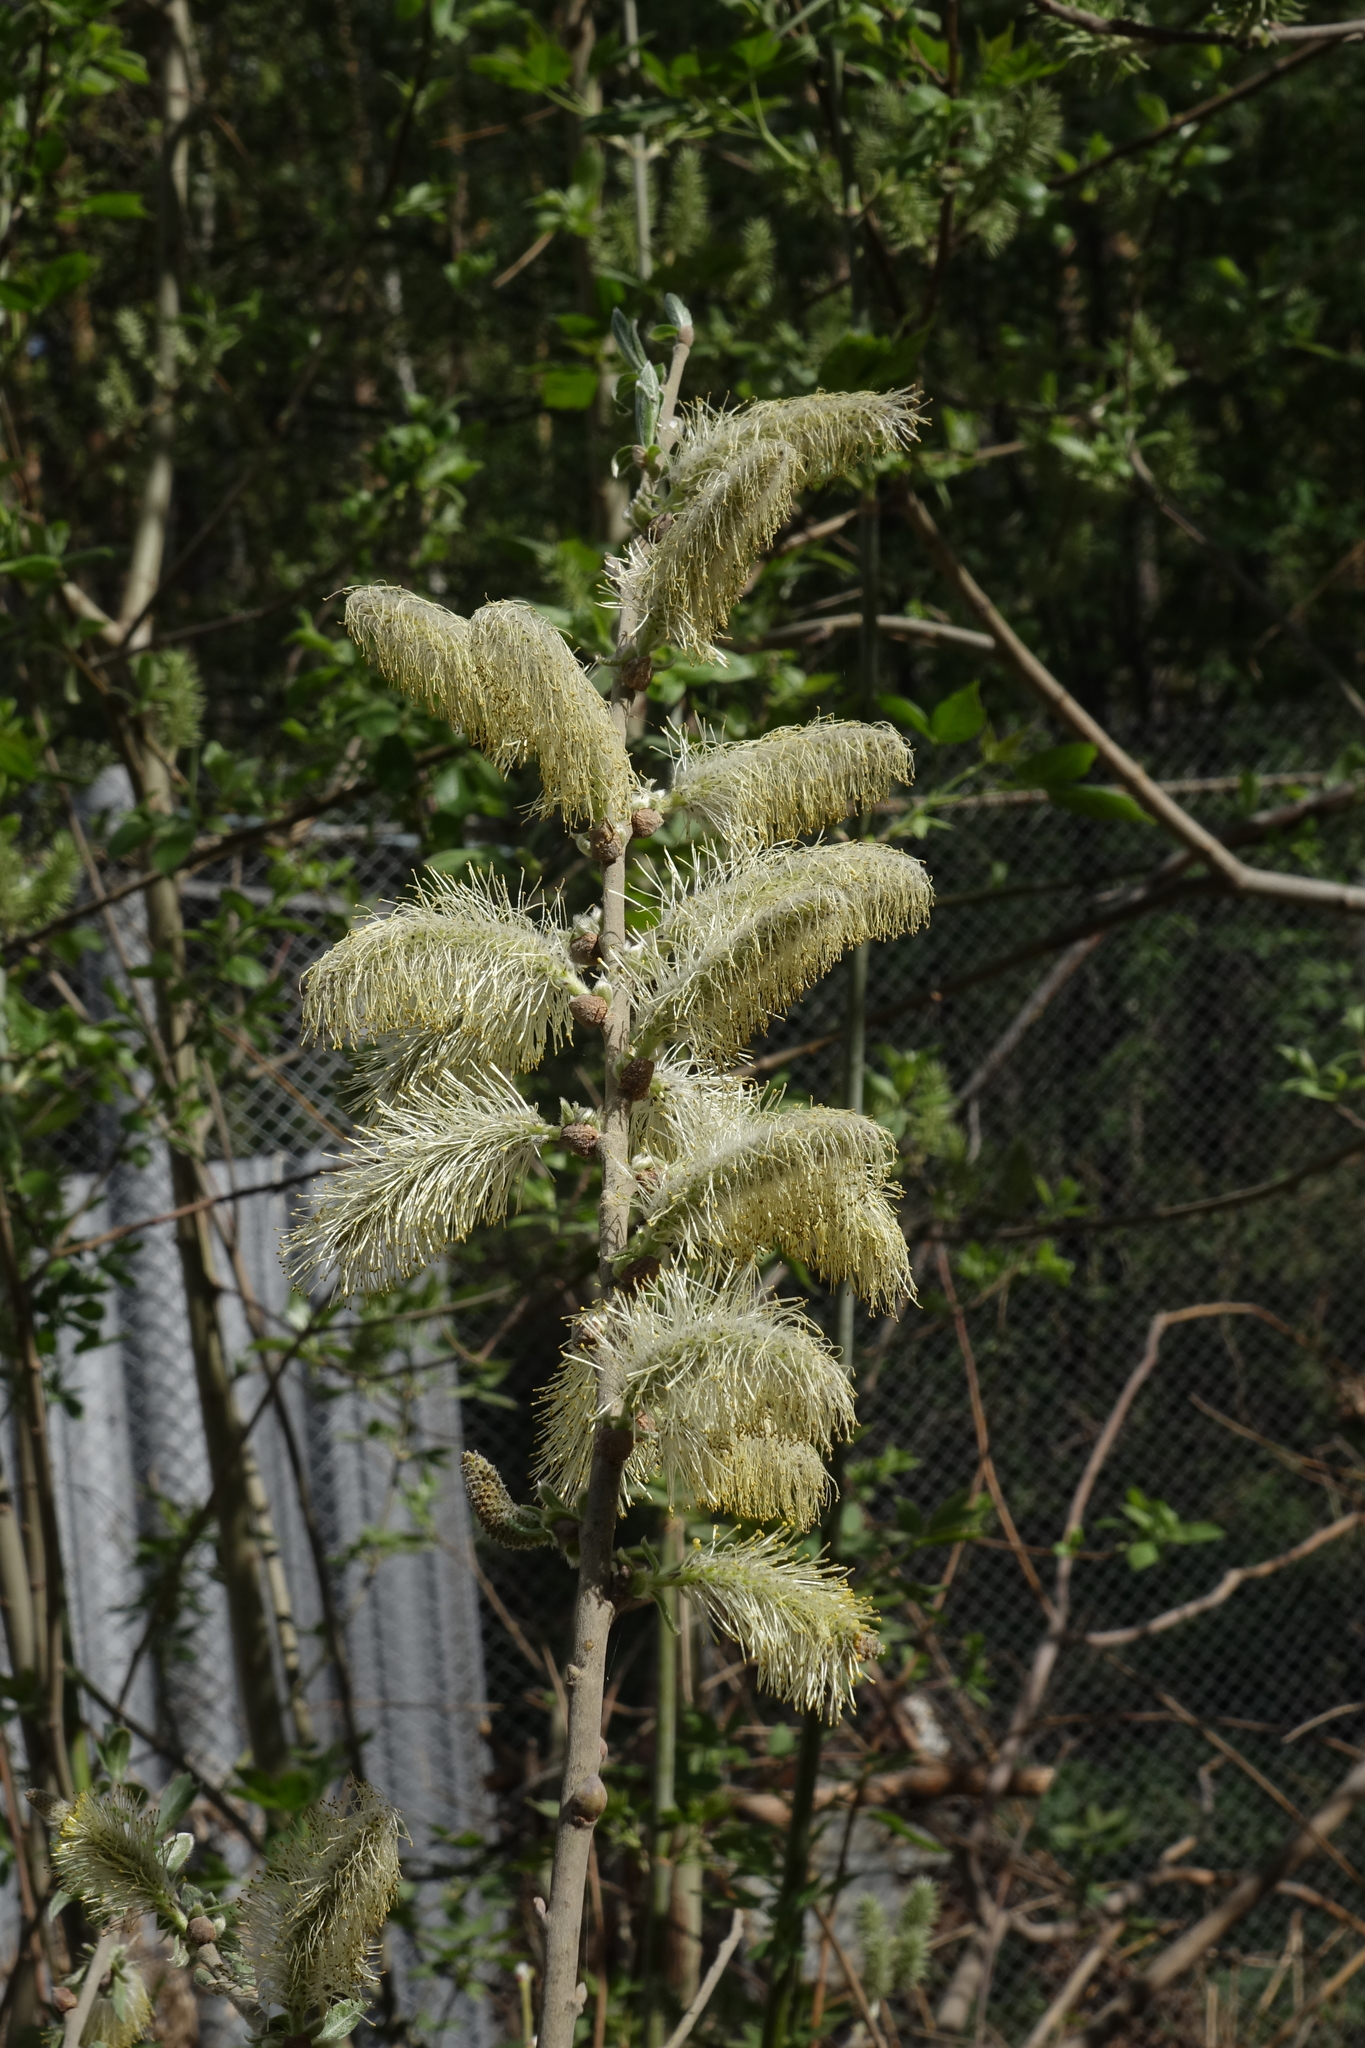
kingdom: Plantae
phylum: Tracheophyta
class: Magnoliopsida
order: Malpighiales
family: Salicaceae
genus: Salix
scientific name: Salix caprea
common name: Goat willow
